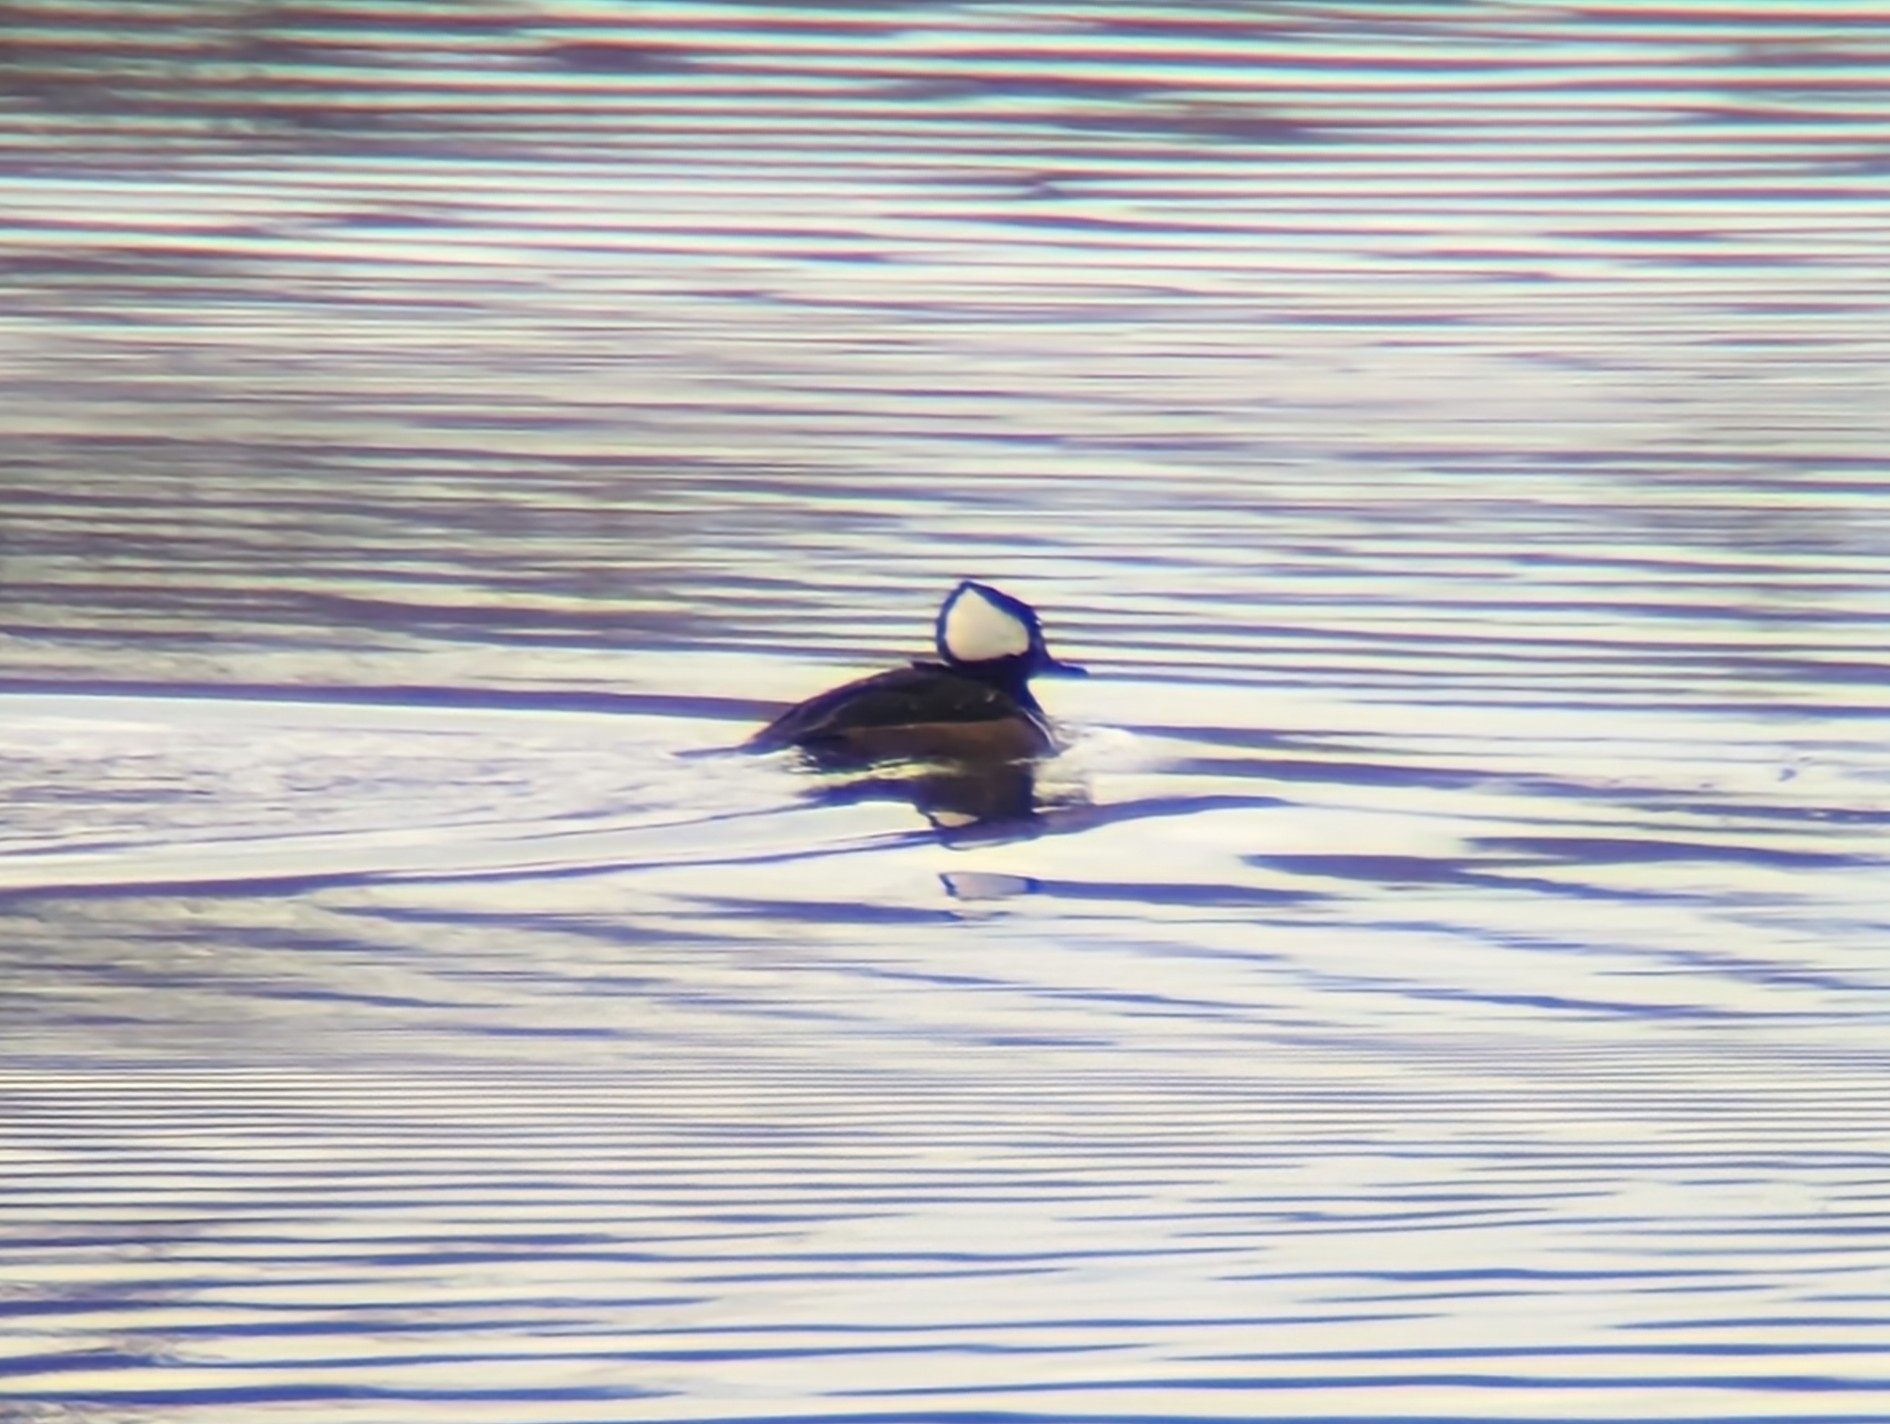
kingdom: Animalia
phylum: Chordata
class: Aves
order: Anseriformes
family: Anatidae
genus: Lophodytes
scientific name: Lophodytes cucullatus
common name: Hooded merganser
